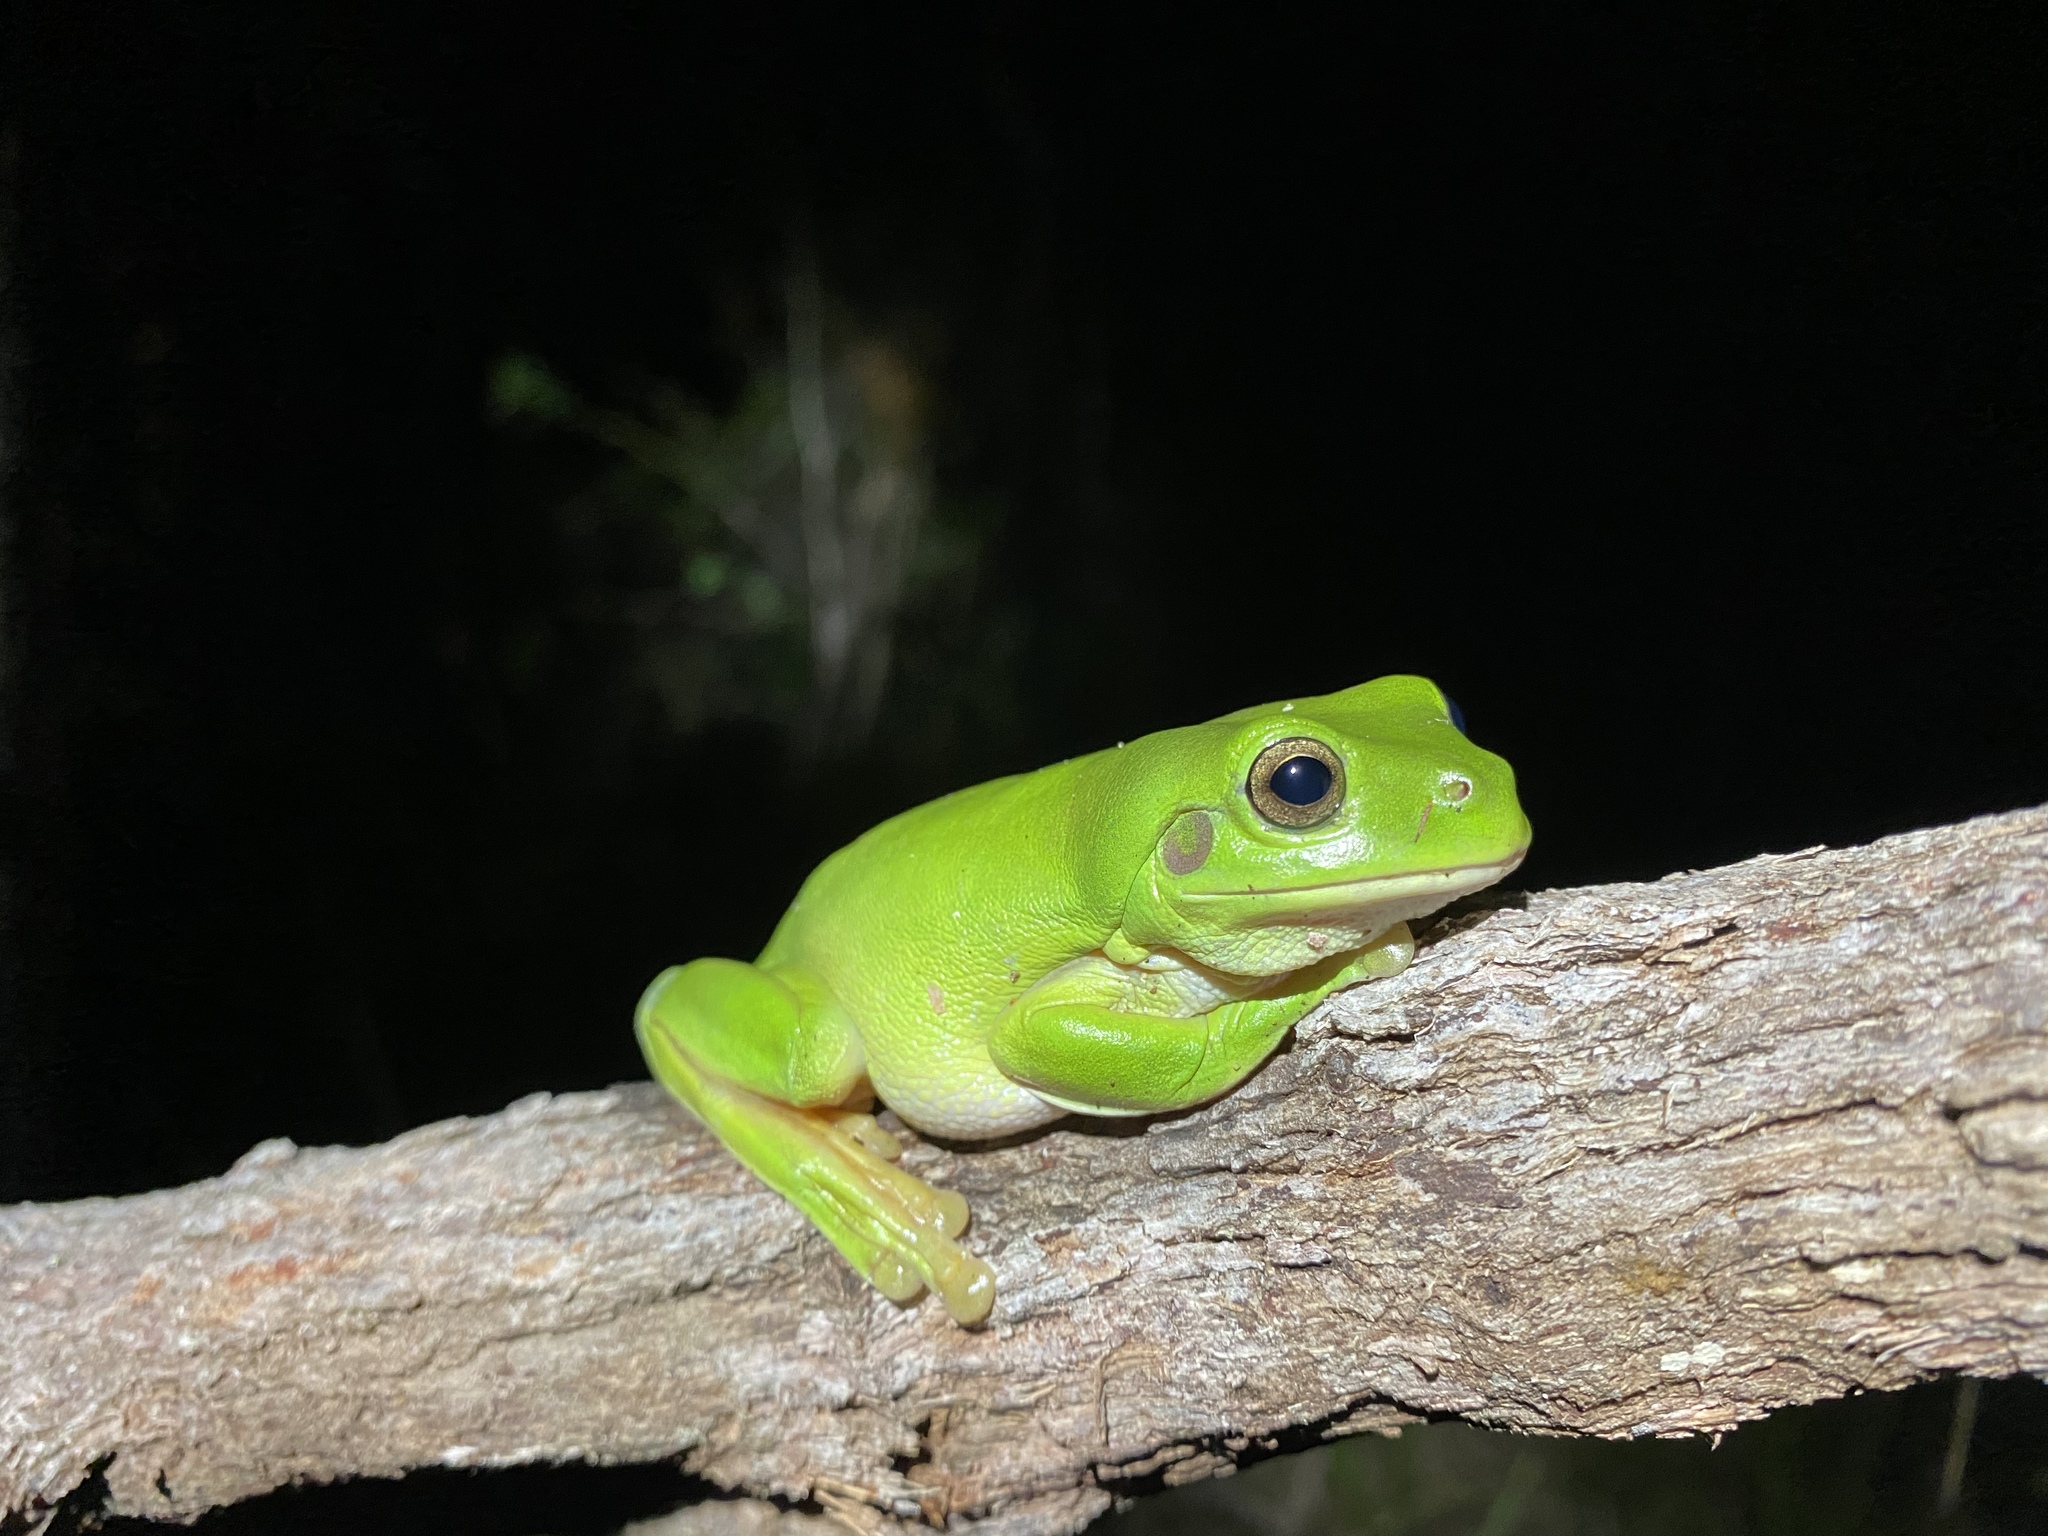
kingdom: Animalia
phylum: Chordata
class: Amphibia
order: Anura
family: Pelodryadidae
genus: Ranoidea
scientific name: Ranoidea caerulea
